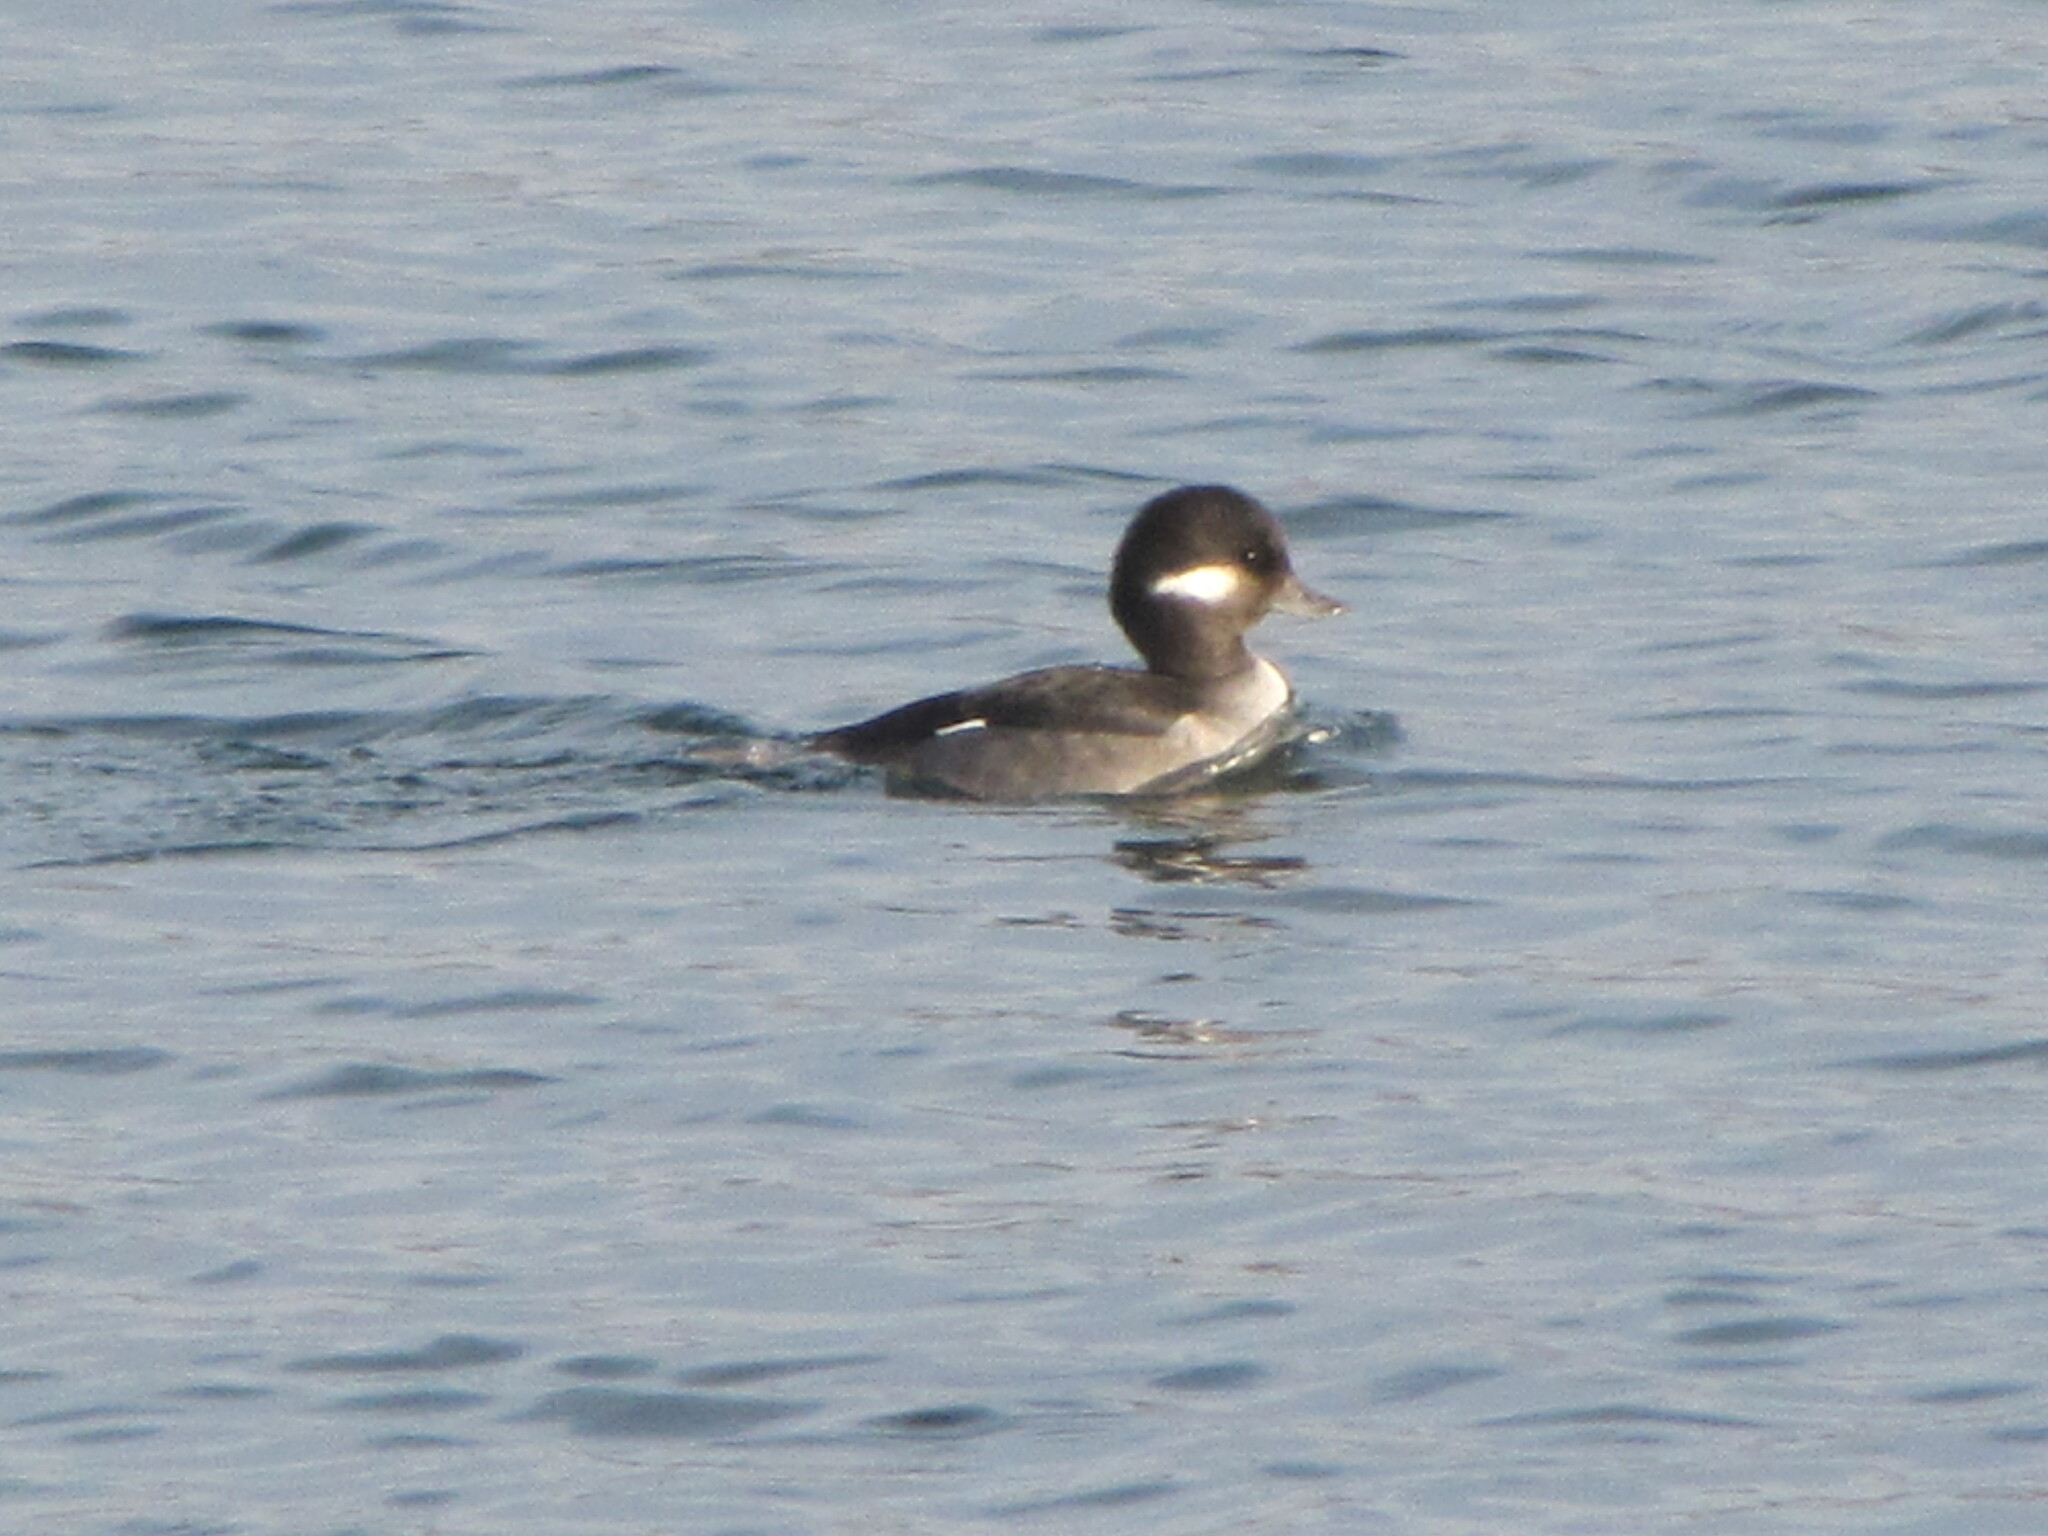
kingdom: Animalia
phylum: Chordata
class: Aves
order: Anseriformes
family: Anatidae
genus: Bucephala
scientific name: Bucephala albeola
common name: Bufflehead
